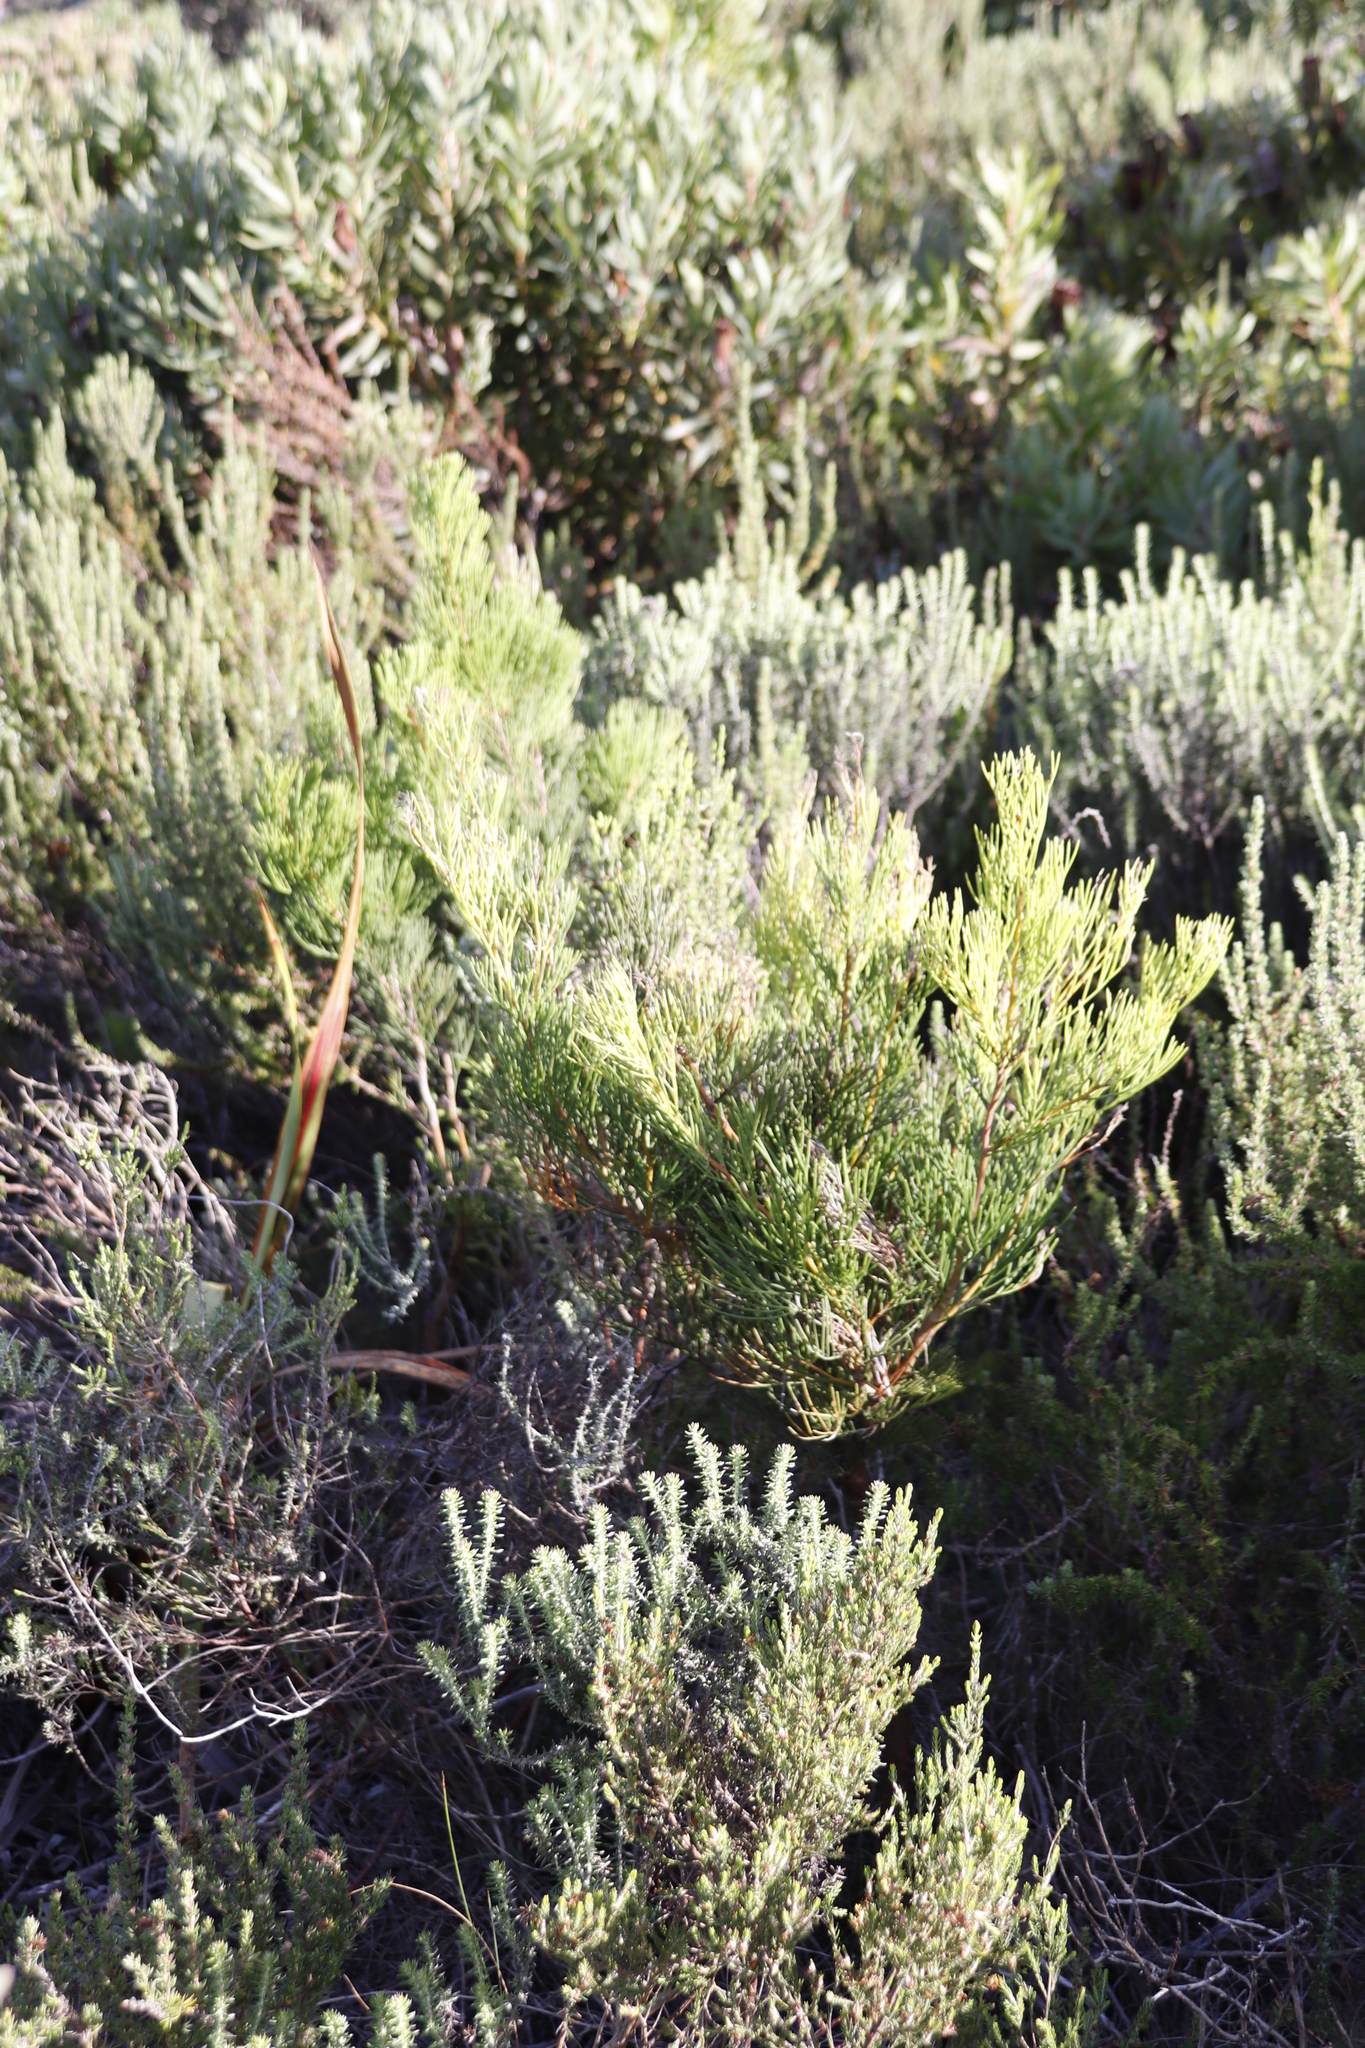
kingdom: Plantae
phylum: Tracheophyta
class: Magnoliopsida
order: Proteales
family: Proteaceae
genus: Hakea
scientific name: Hakea drupacea
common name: Sweet hakea
